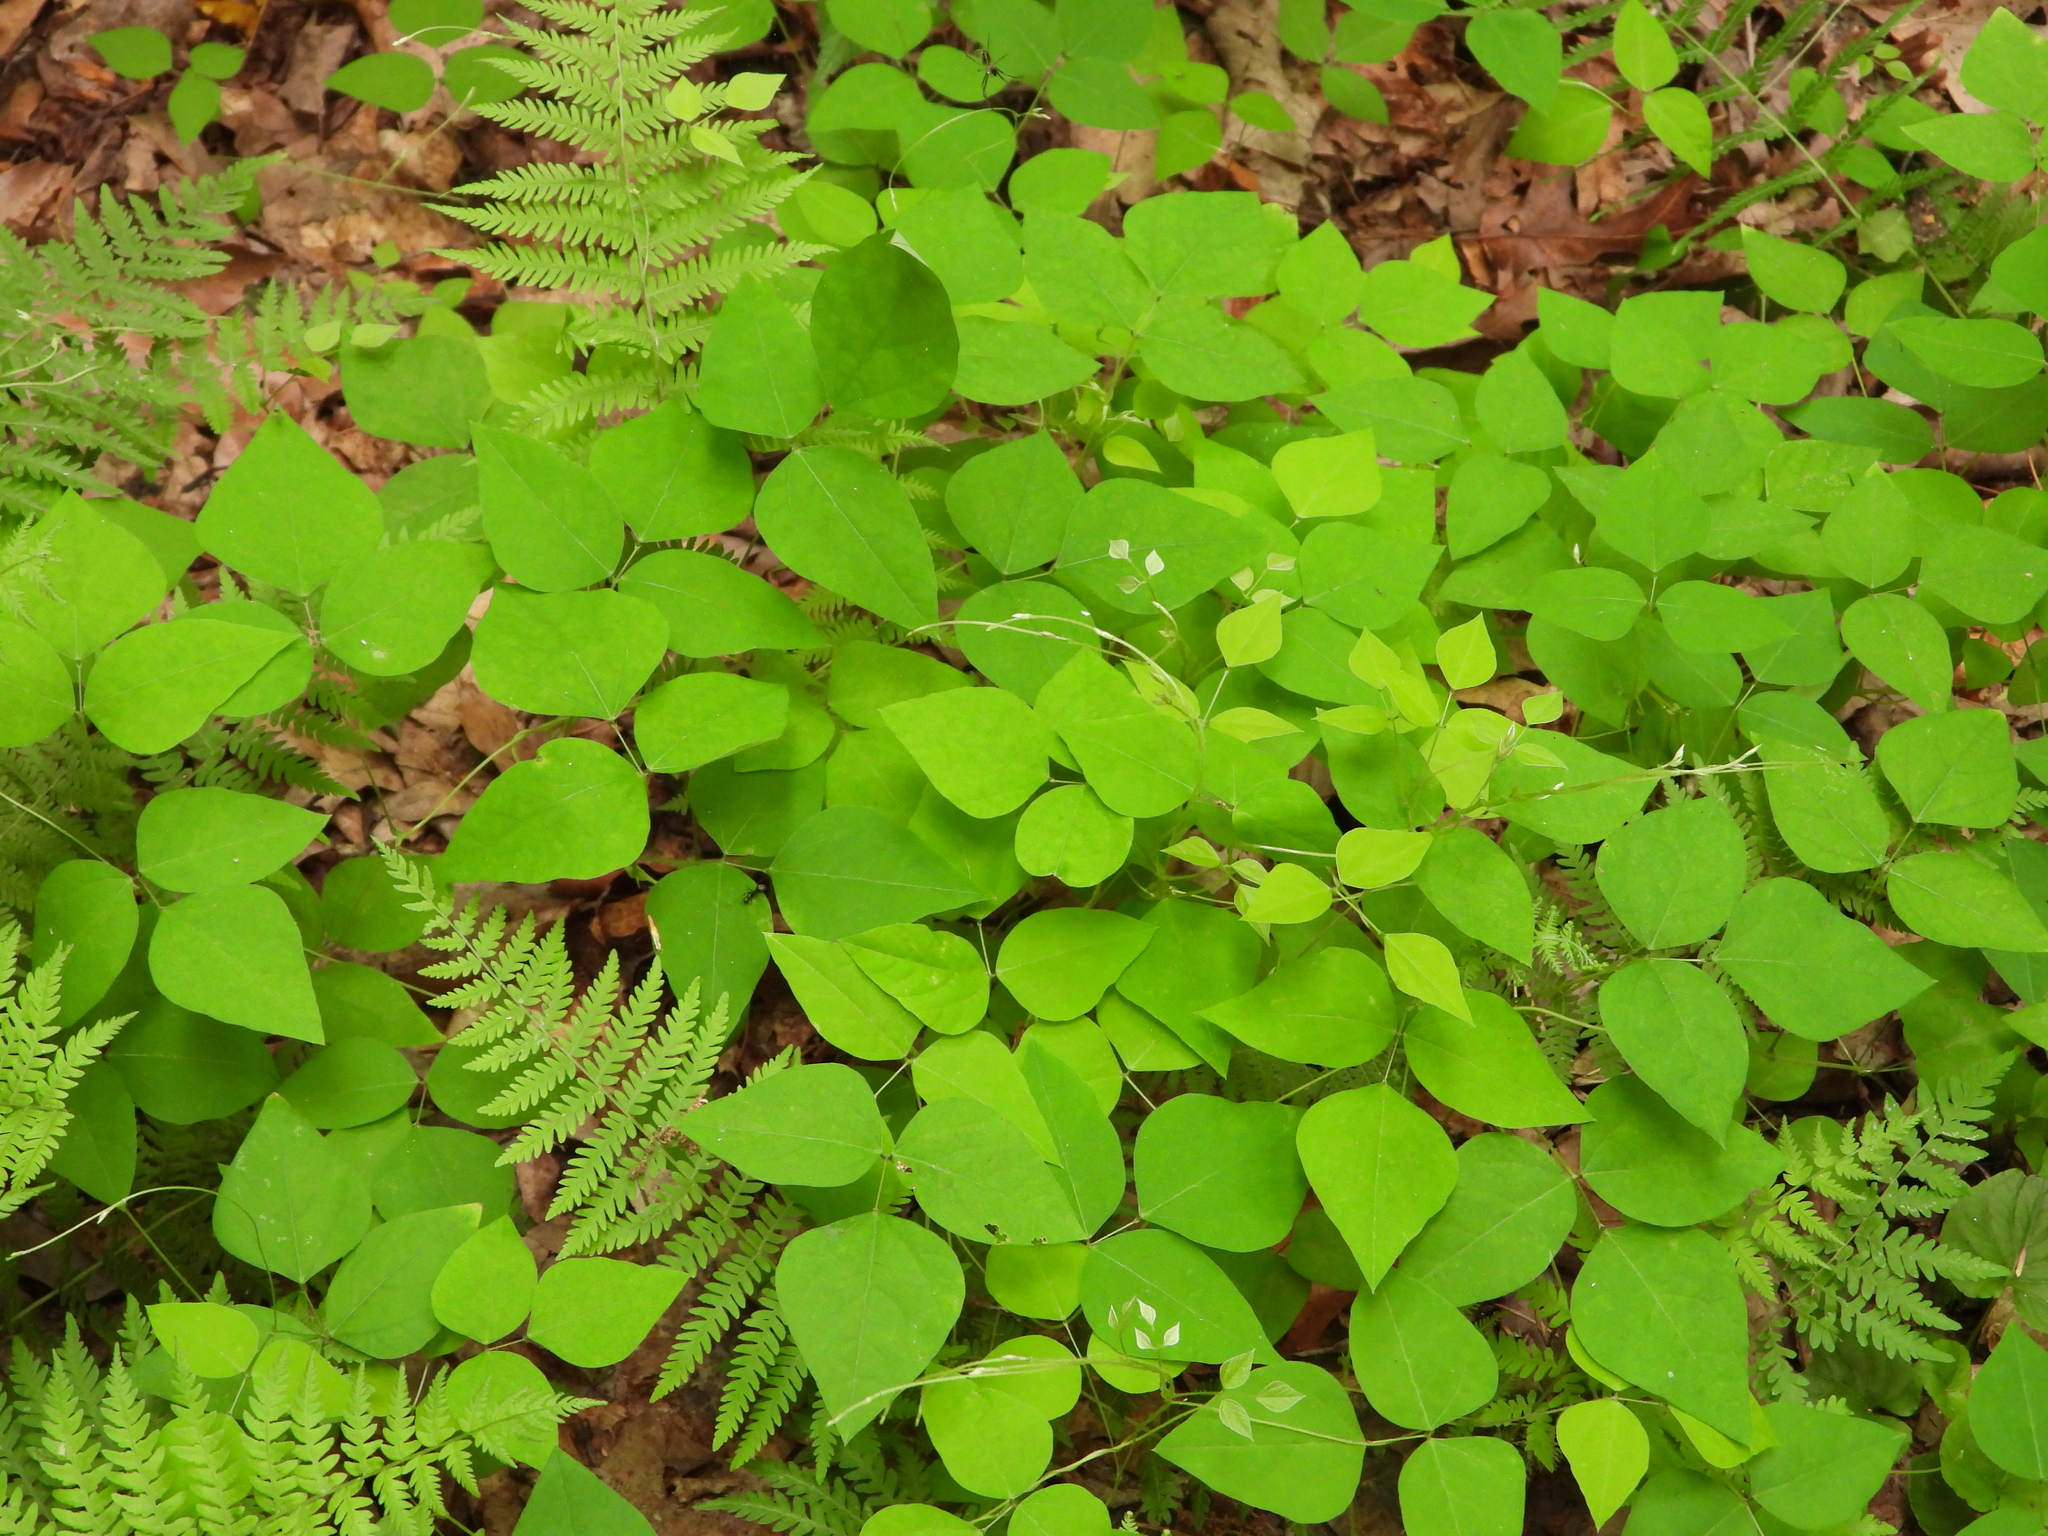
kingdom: Plantae
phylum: Tracheophyta
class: Magnoliopsida
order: Fabales
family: Fabaceae
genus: Amphicarpaea
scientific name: Amphicarpaea bracteata
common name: American hog peanut
